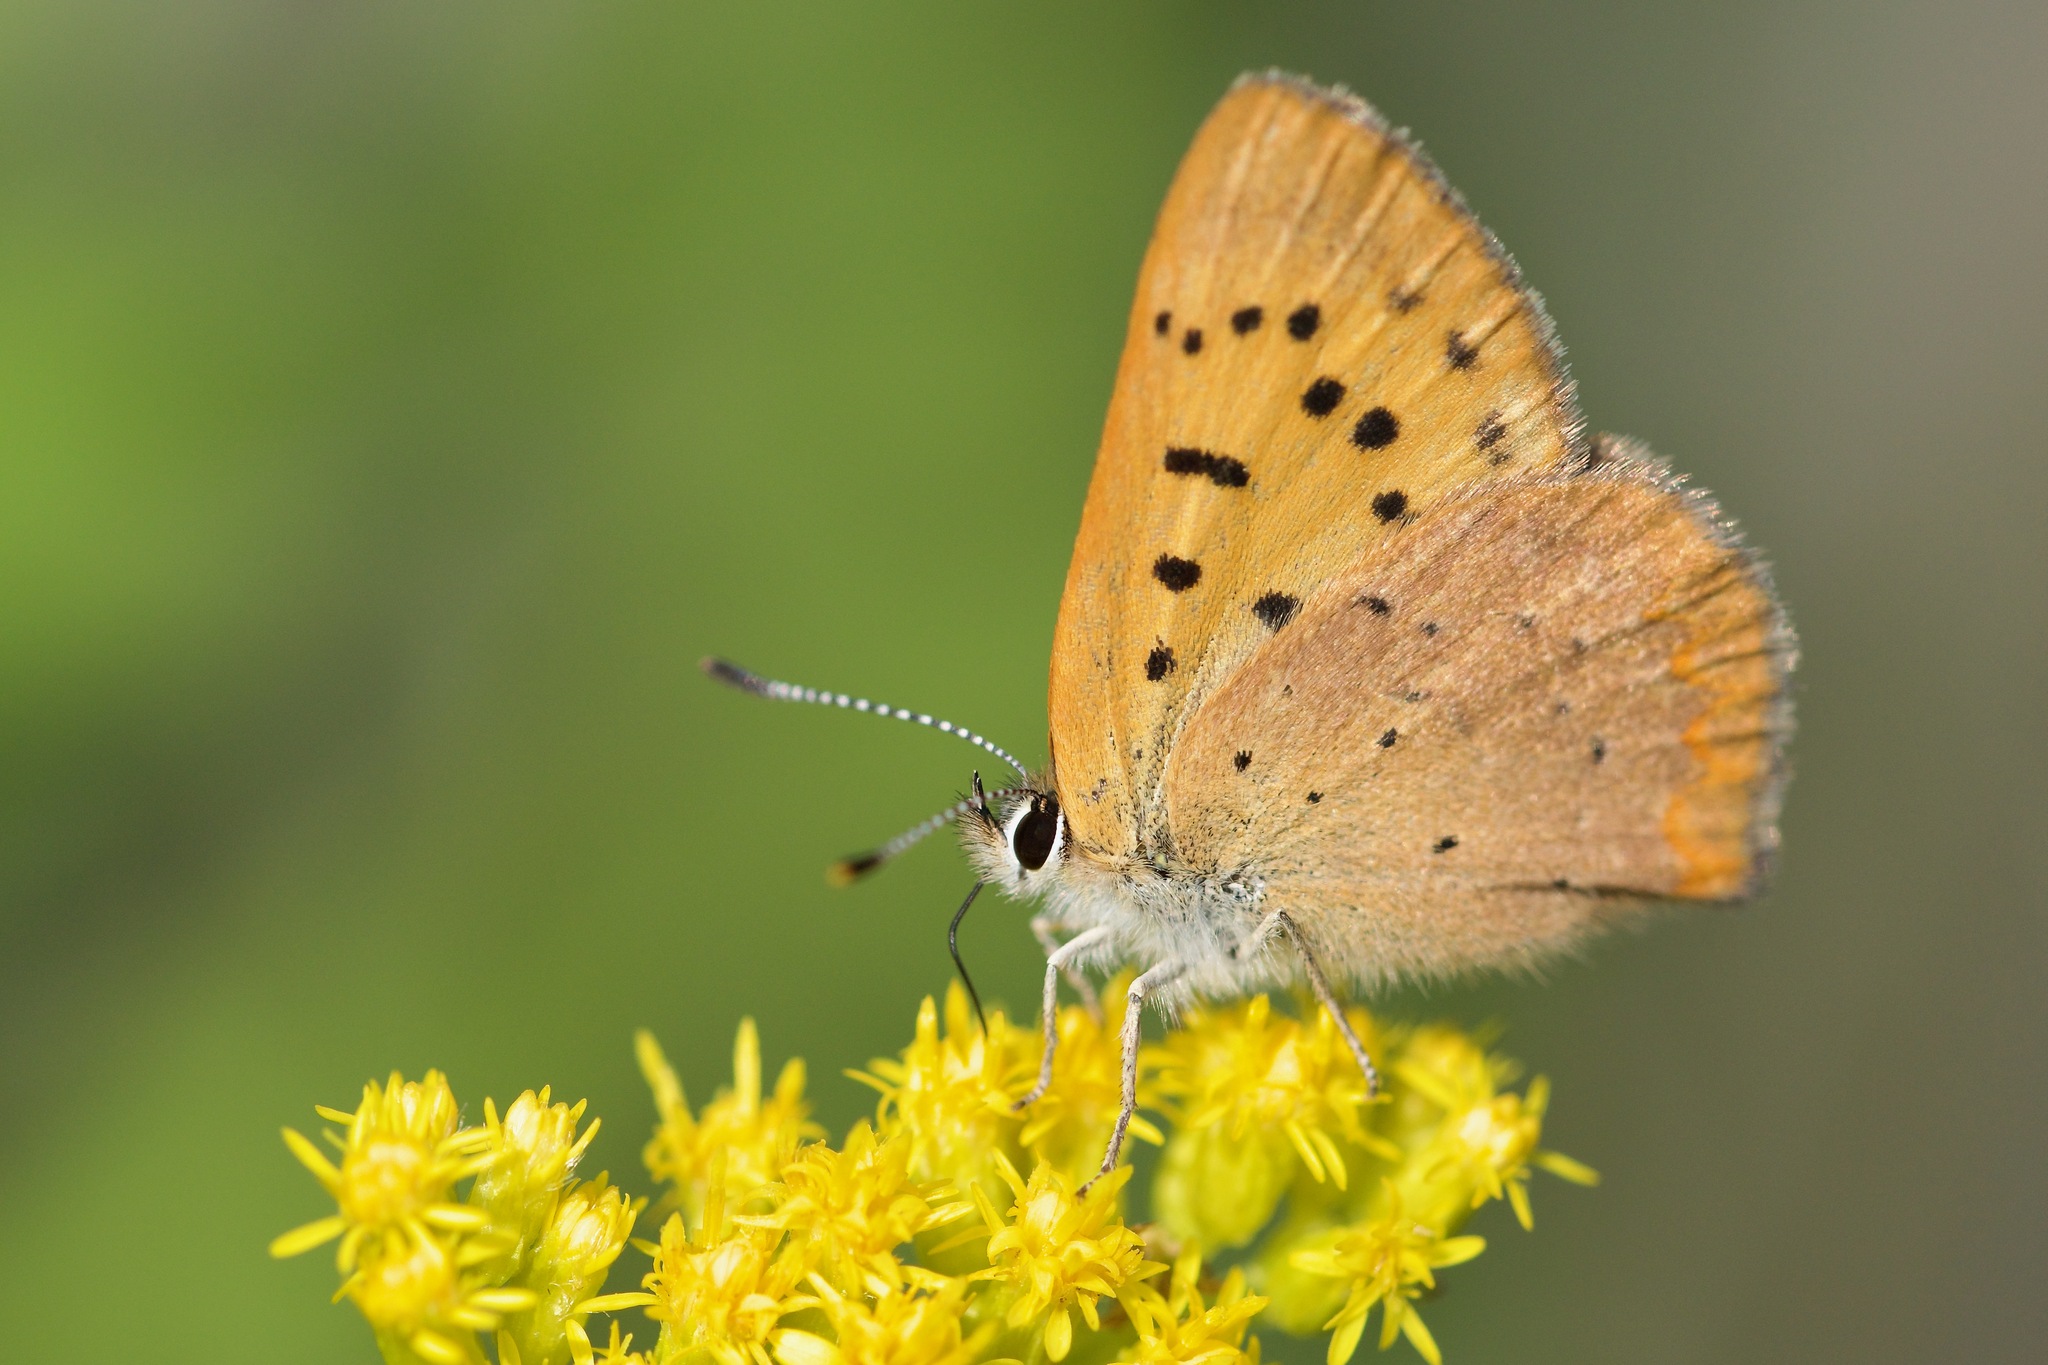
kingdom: Animalia
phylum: Arthropoda
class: Insecta
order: Lepidoptera
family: Lycaenidae
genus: Tharsalea
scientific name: Tharsalea dorcas
